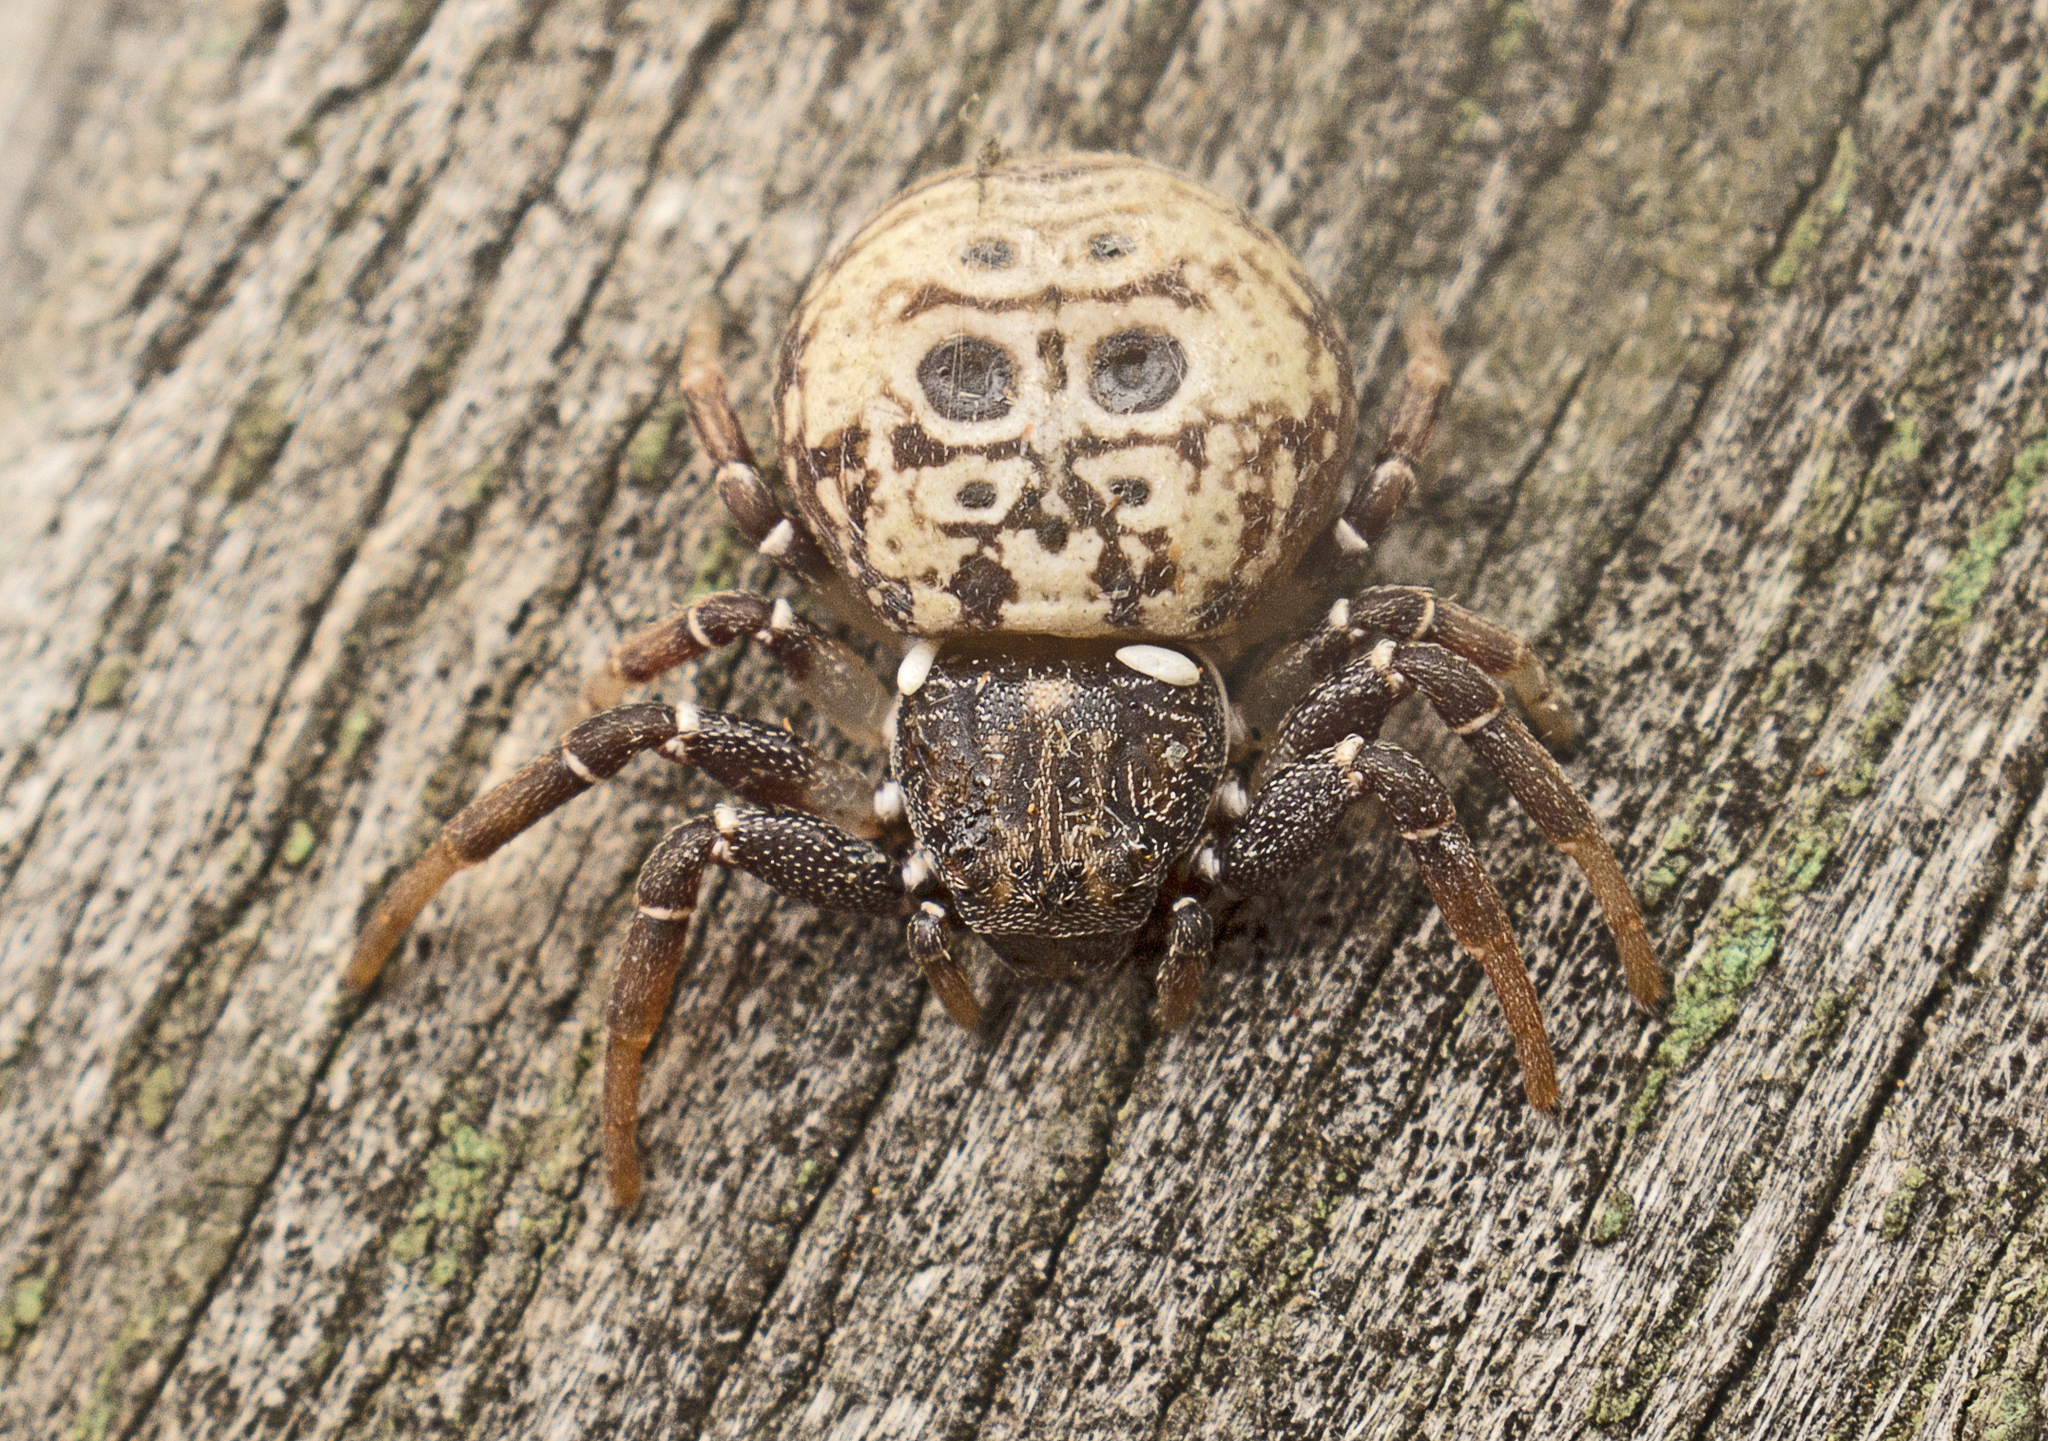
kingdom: Animalia
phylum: Arthropoda
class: Arachnida
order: Araneae
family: Thomisidae
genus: Cymbacha
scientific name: Cymbacha ocellata
